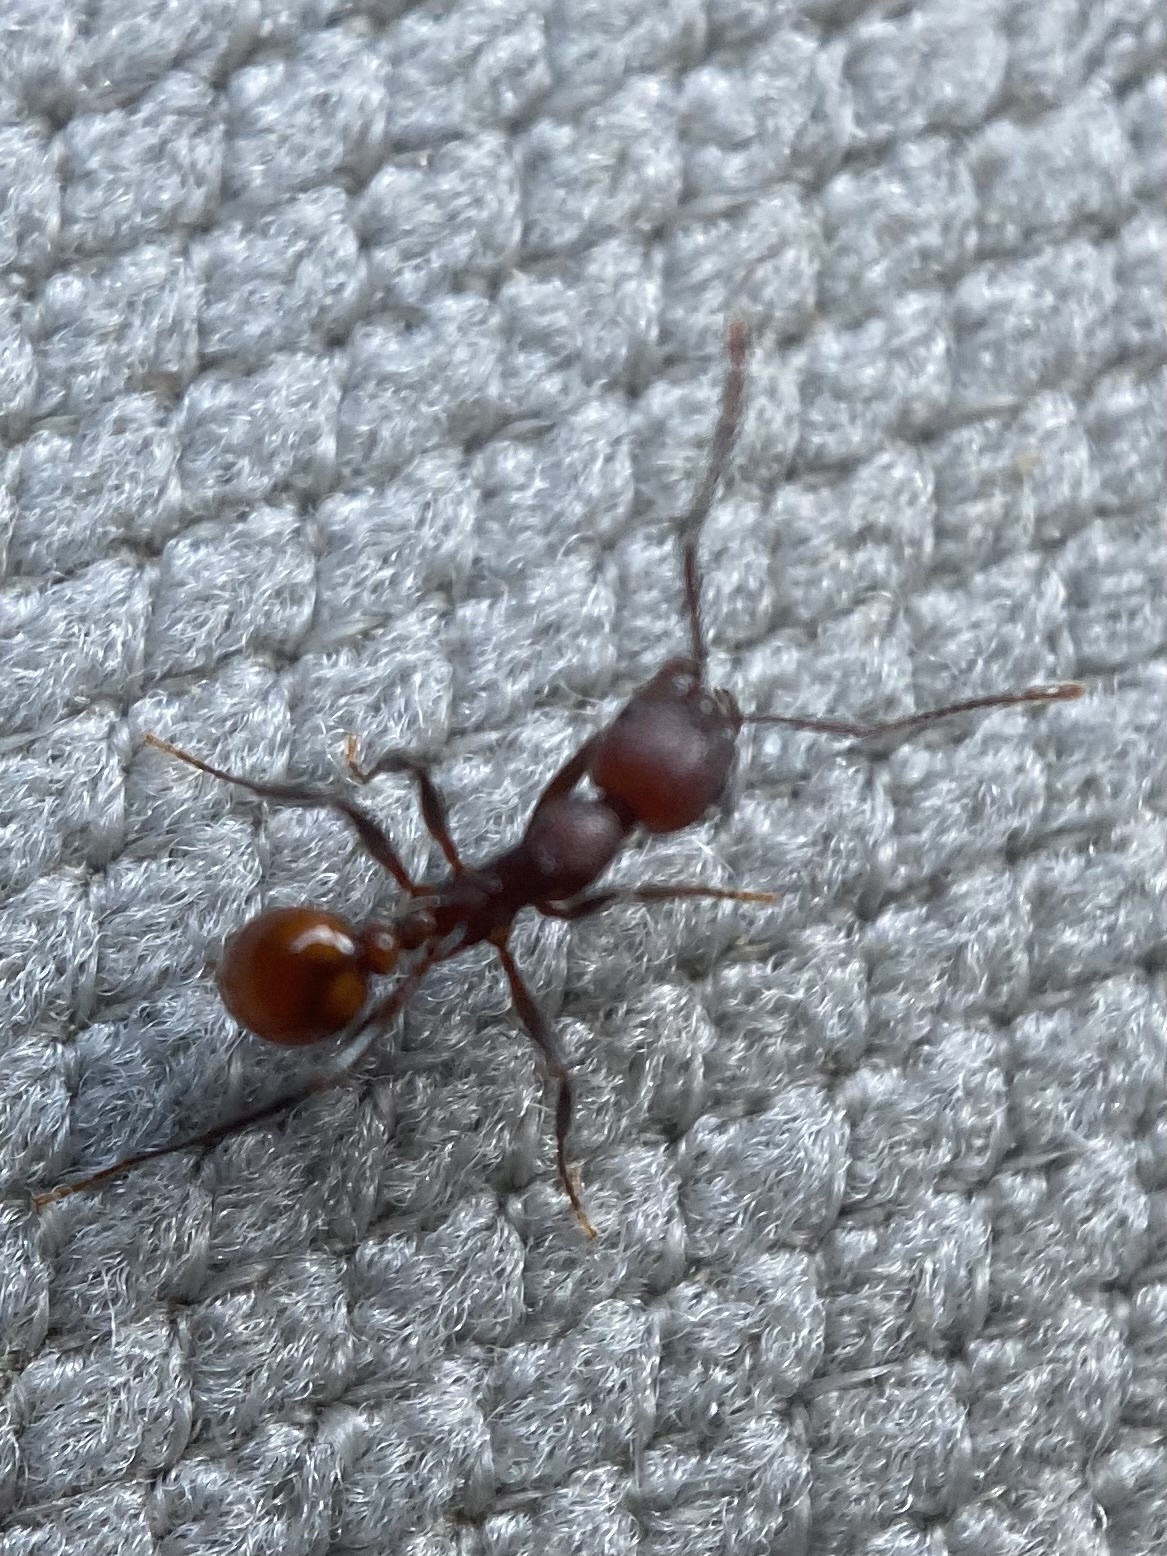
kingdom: Animalia
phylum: Arthropoda
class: Insecta
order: Hymenoptera
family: Formicidae
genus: Aphaenogaster
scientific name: Aphaenogaster tennesseensis
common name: Tennessee thread-waisted ant
